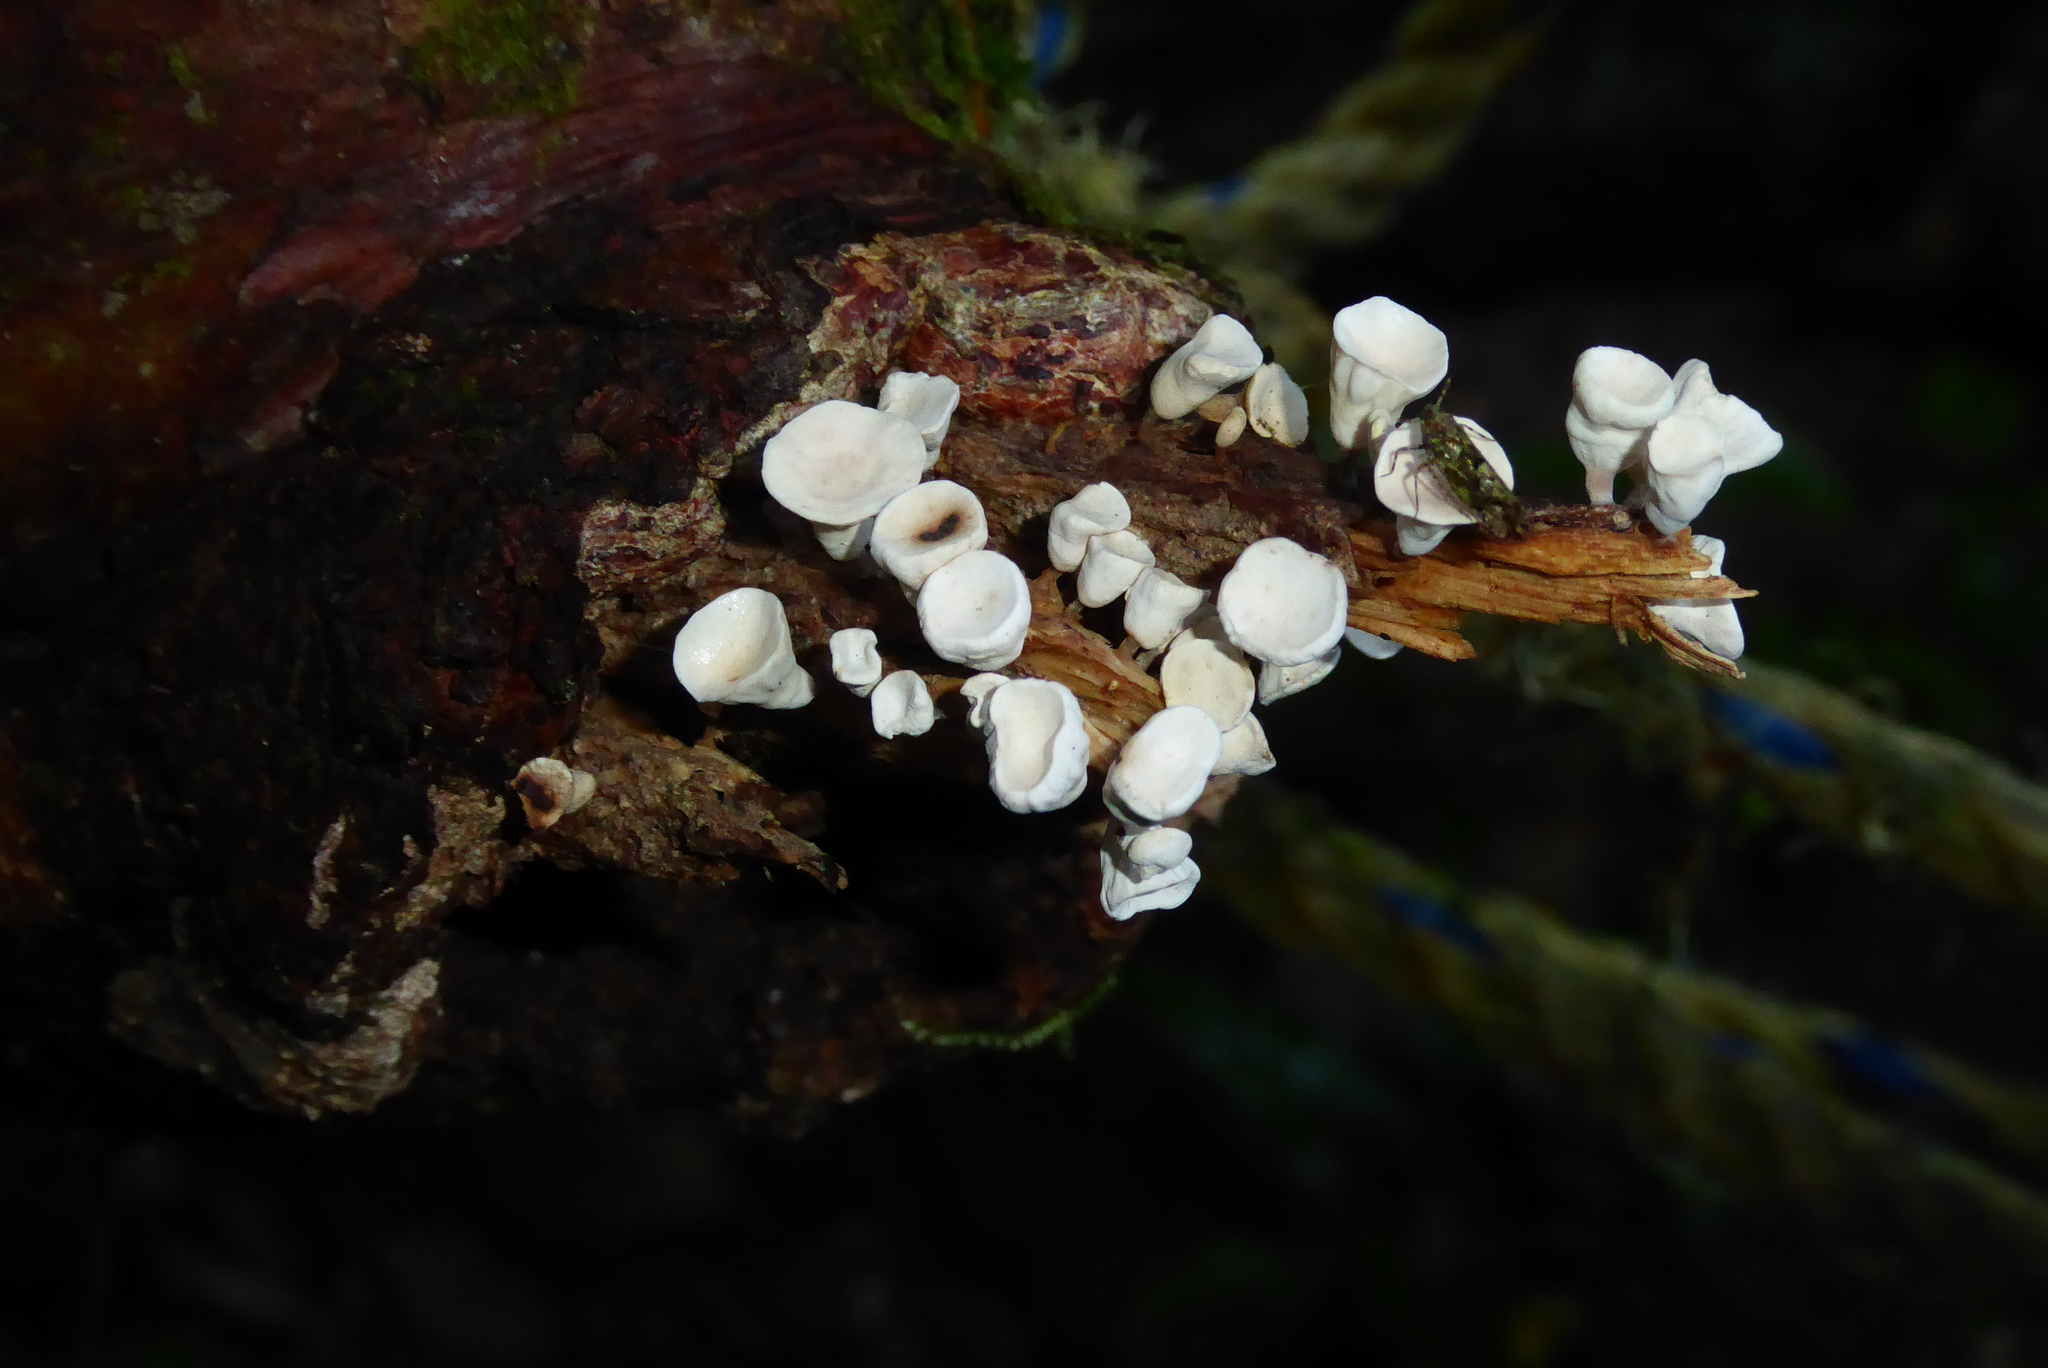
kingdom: Fungi
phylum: Basidiomycota
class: Agaricomycetes
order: Agaricales
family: Omphalotaceae
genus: Gymnopus
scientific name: Gymnopus montagnei
